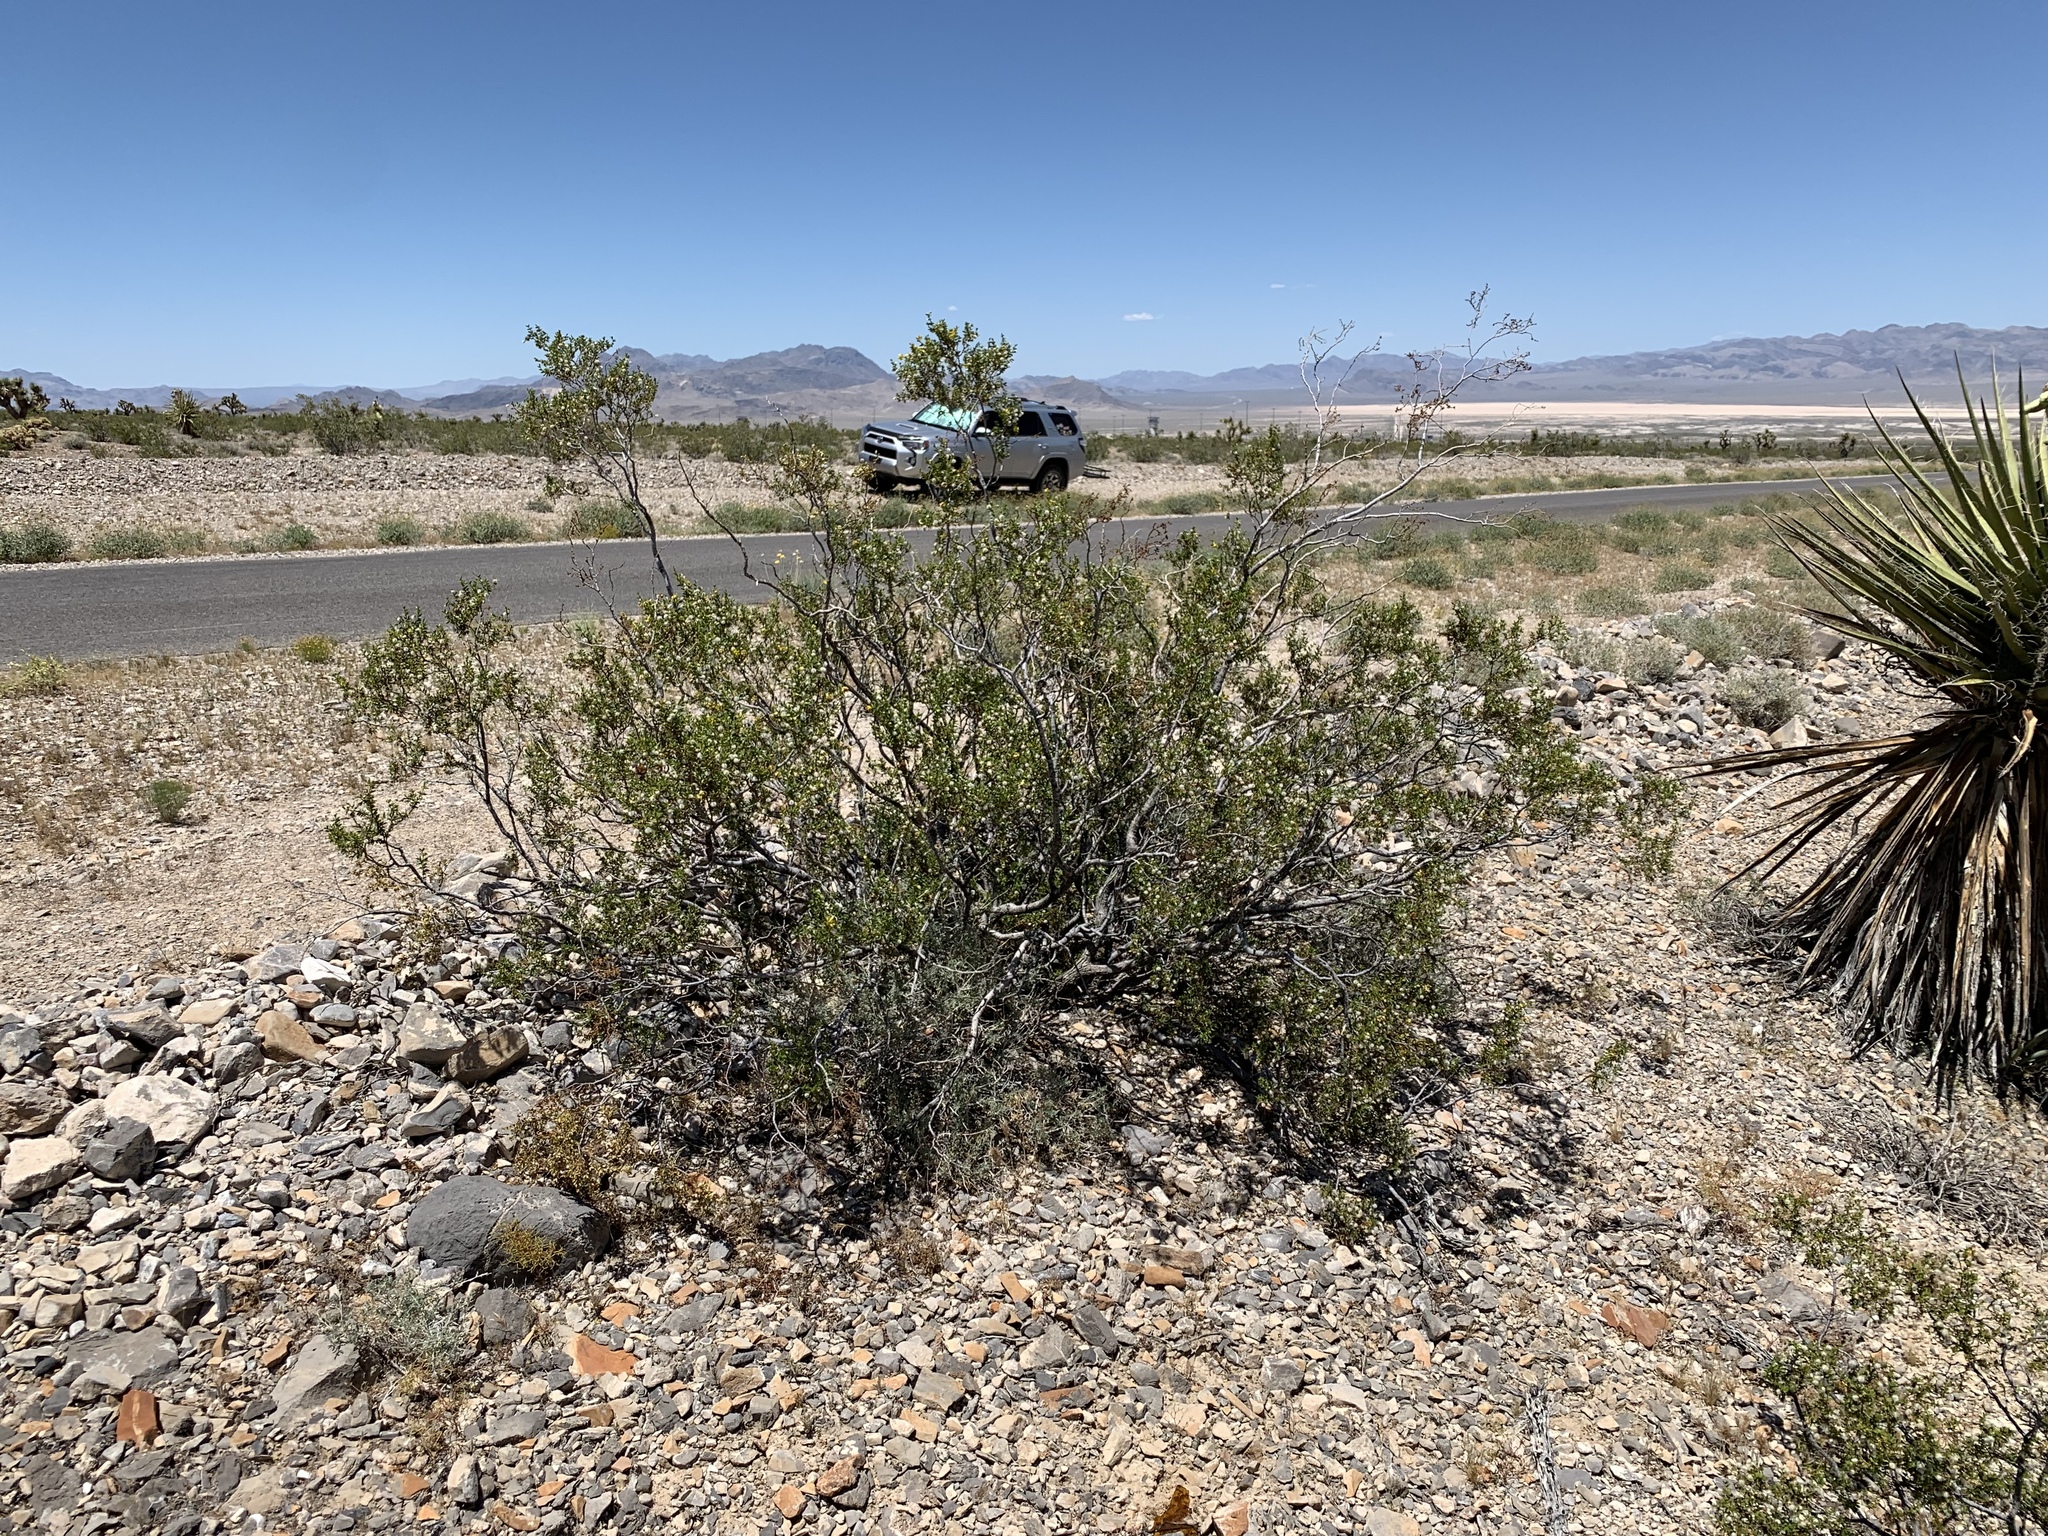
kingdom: Plantae
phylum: Tracheophyta
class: Magnoliopsida
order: Zygophyllales
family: Zygophyllaceae
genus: Larrea
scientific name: Larrea tridentata
